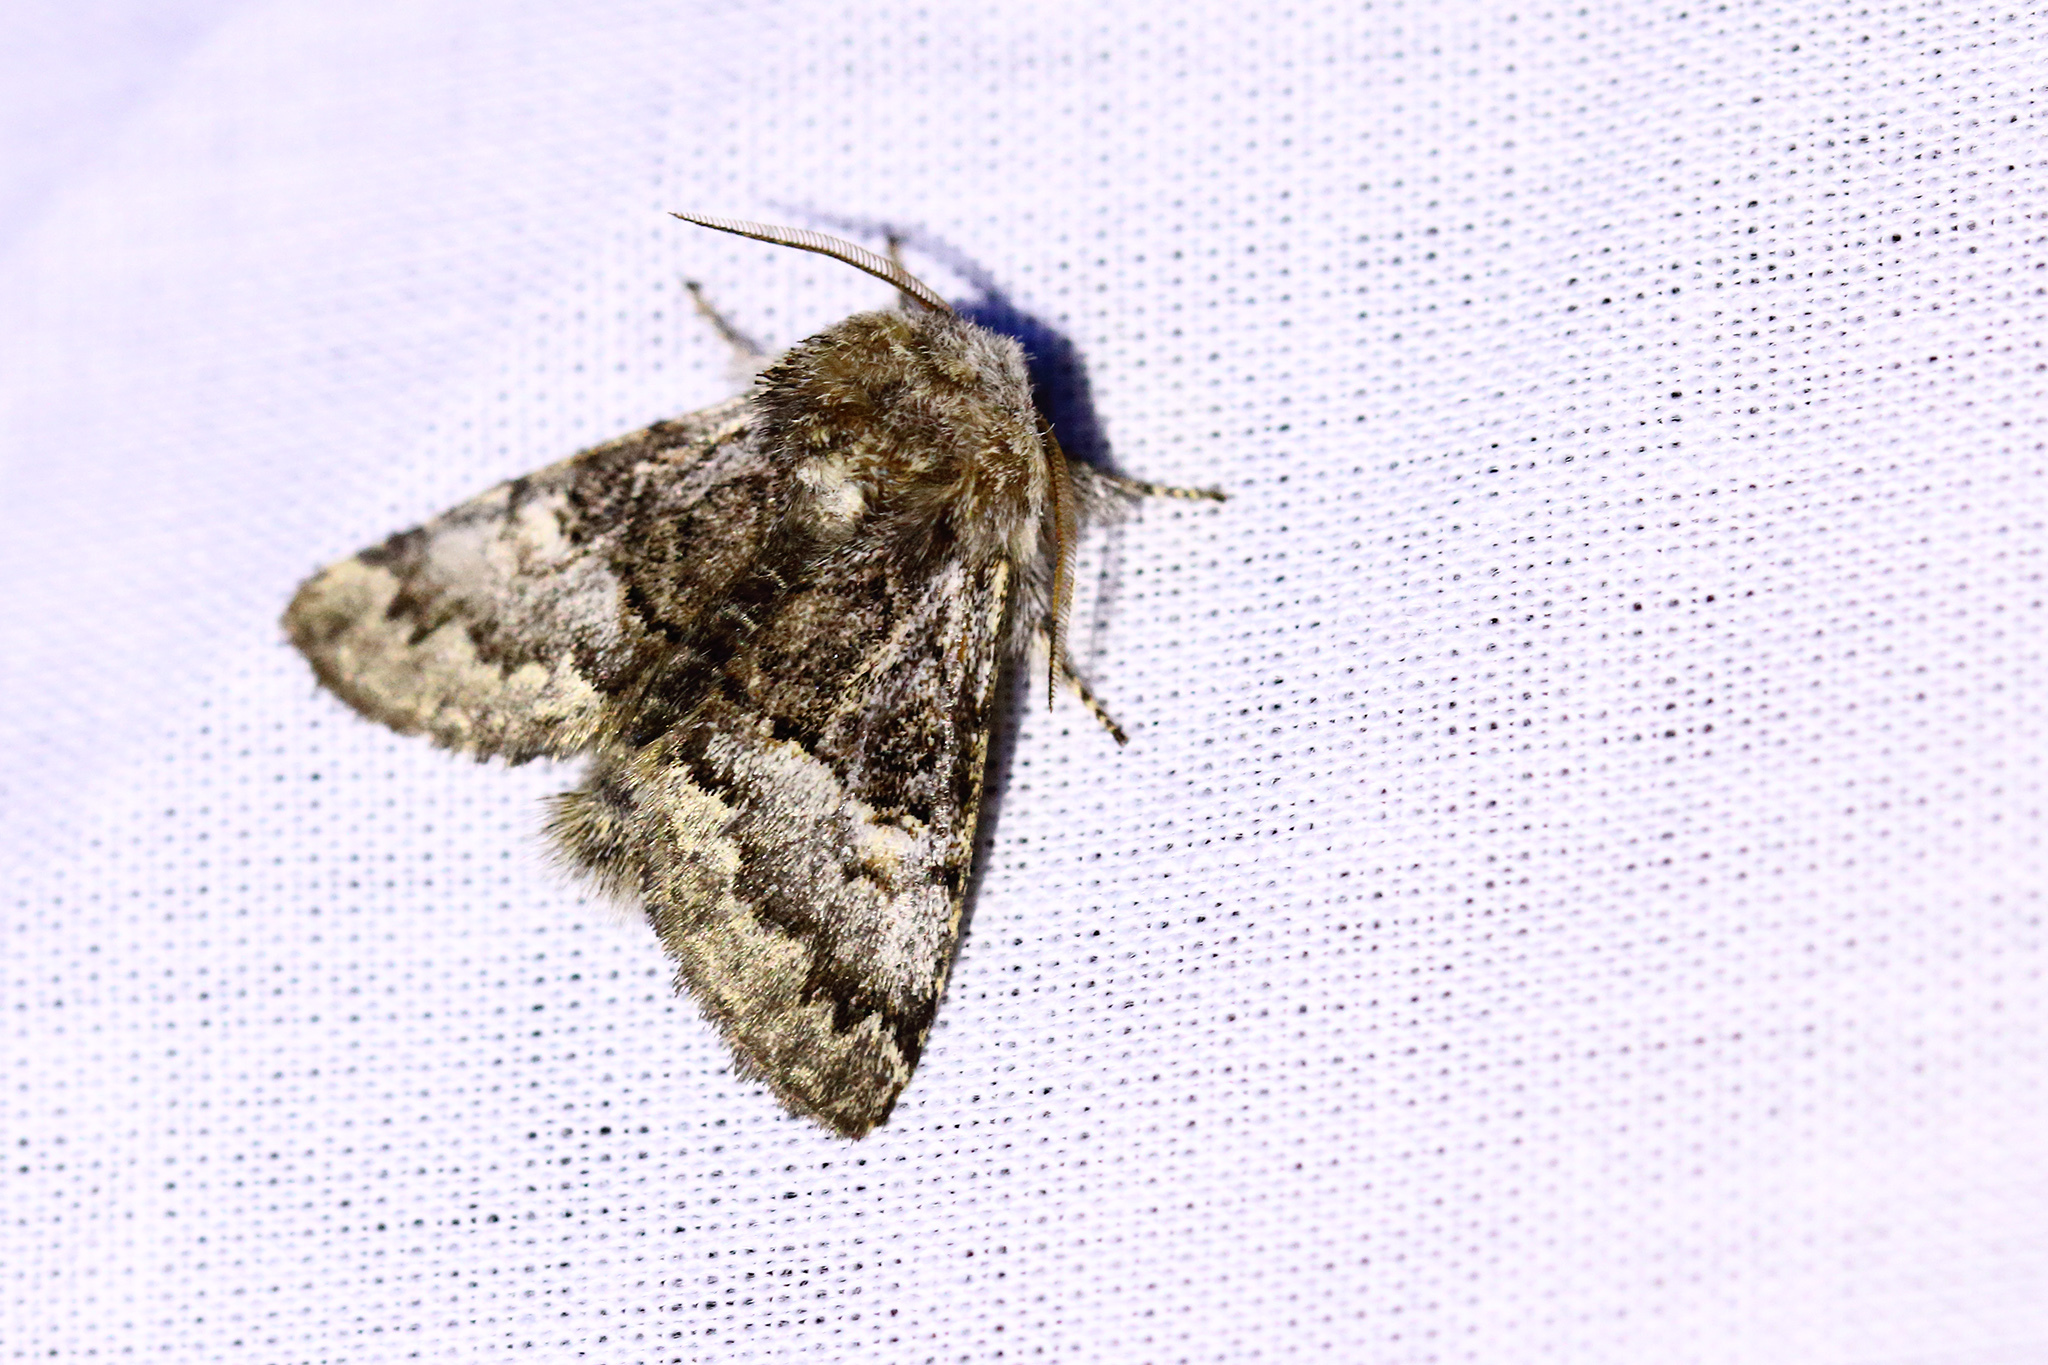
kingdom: Animalia
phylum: Arthropoda
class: Insecta
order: Lepidoptera
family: Noctuidae
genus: Colocasia
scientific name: Colocasia coryli
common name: Nut-tree tussock
